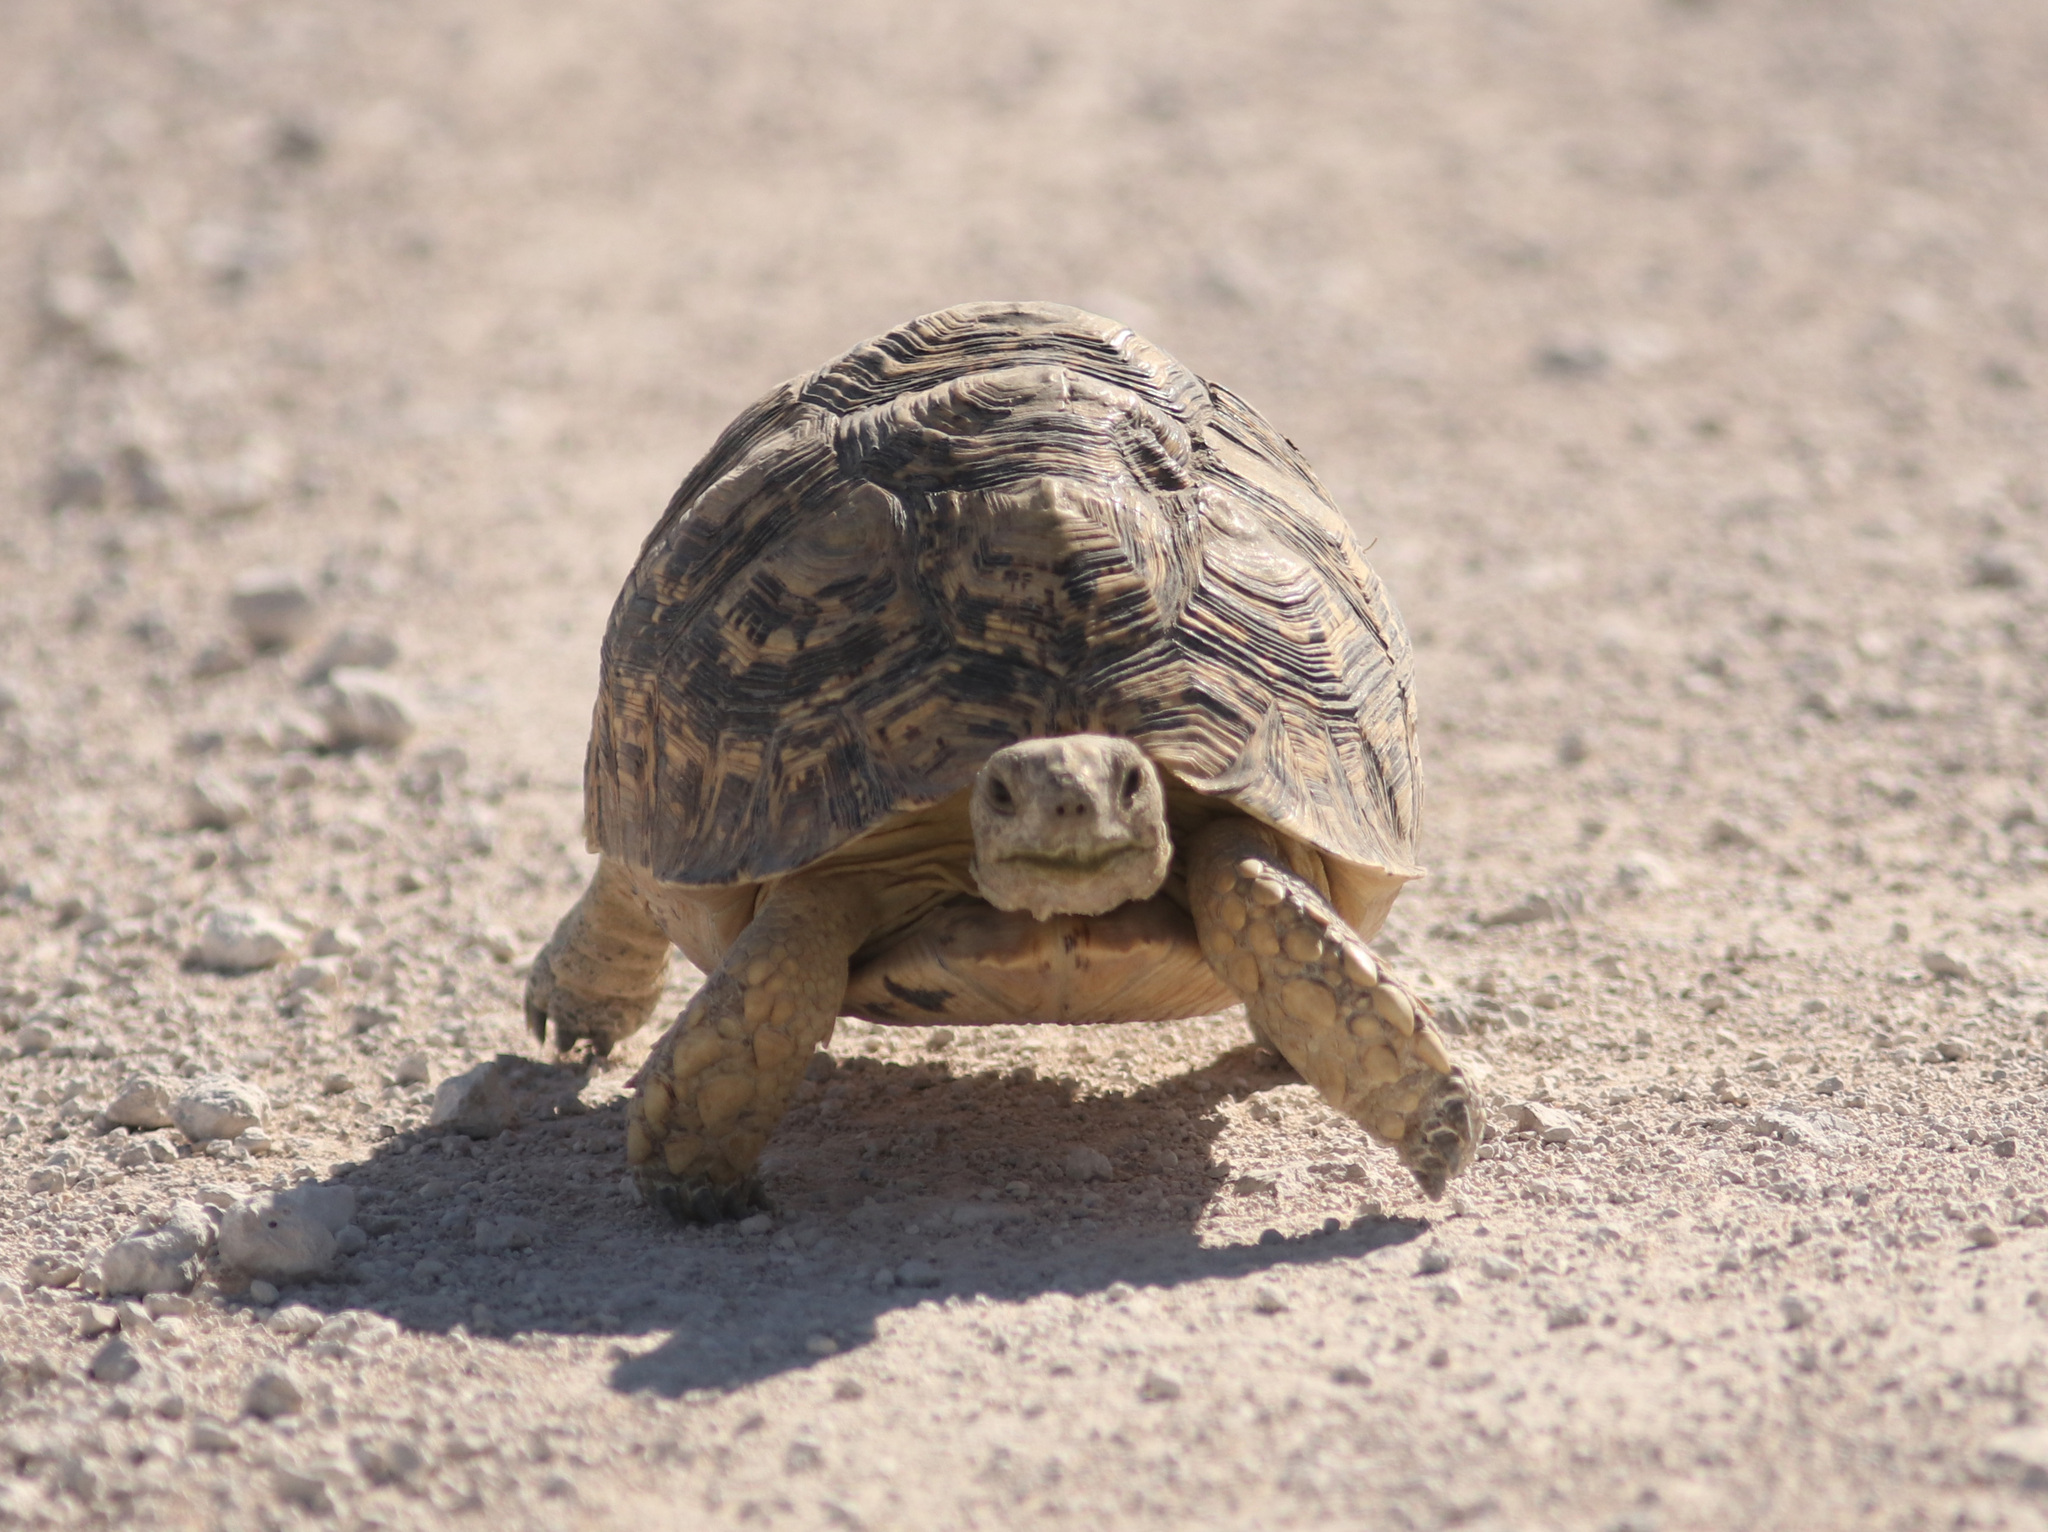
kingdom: Animalia
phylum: Chordata
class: Testudines
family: Testudinidae
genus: Stigmochelys
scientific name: Stigmochelys pardalis
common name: Leopard tortoise
